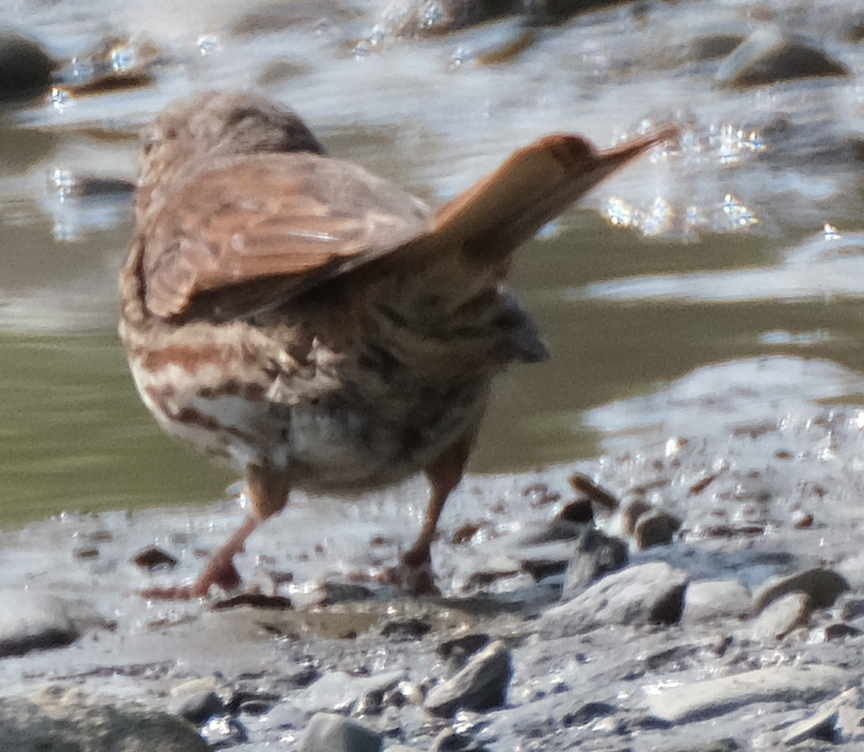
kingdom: Animalia
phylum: Chordata
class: Aves
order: Passeriformes
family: Passerellidae
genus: Passerella
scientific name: Passerella iliaca
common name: Fox sparrow
